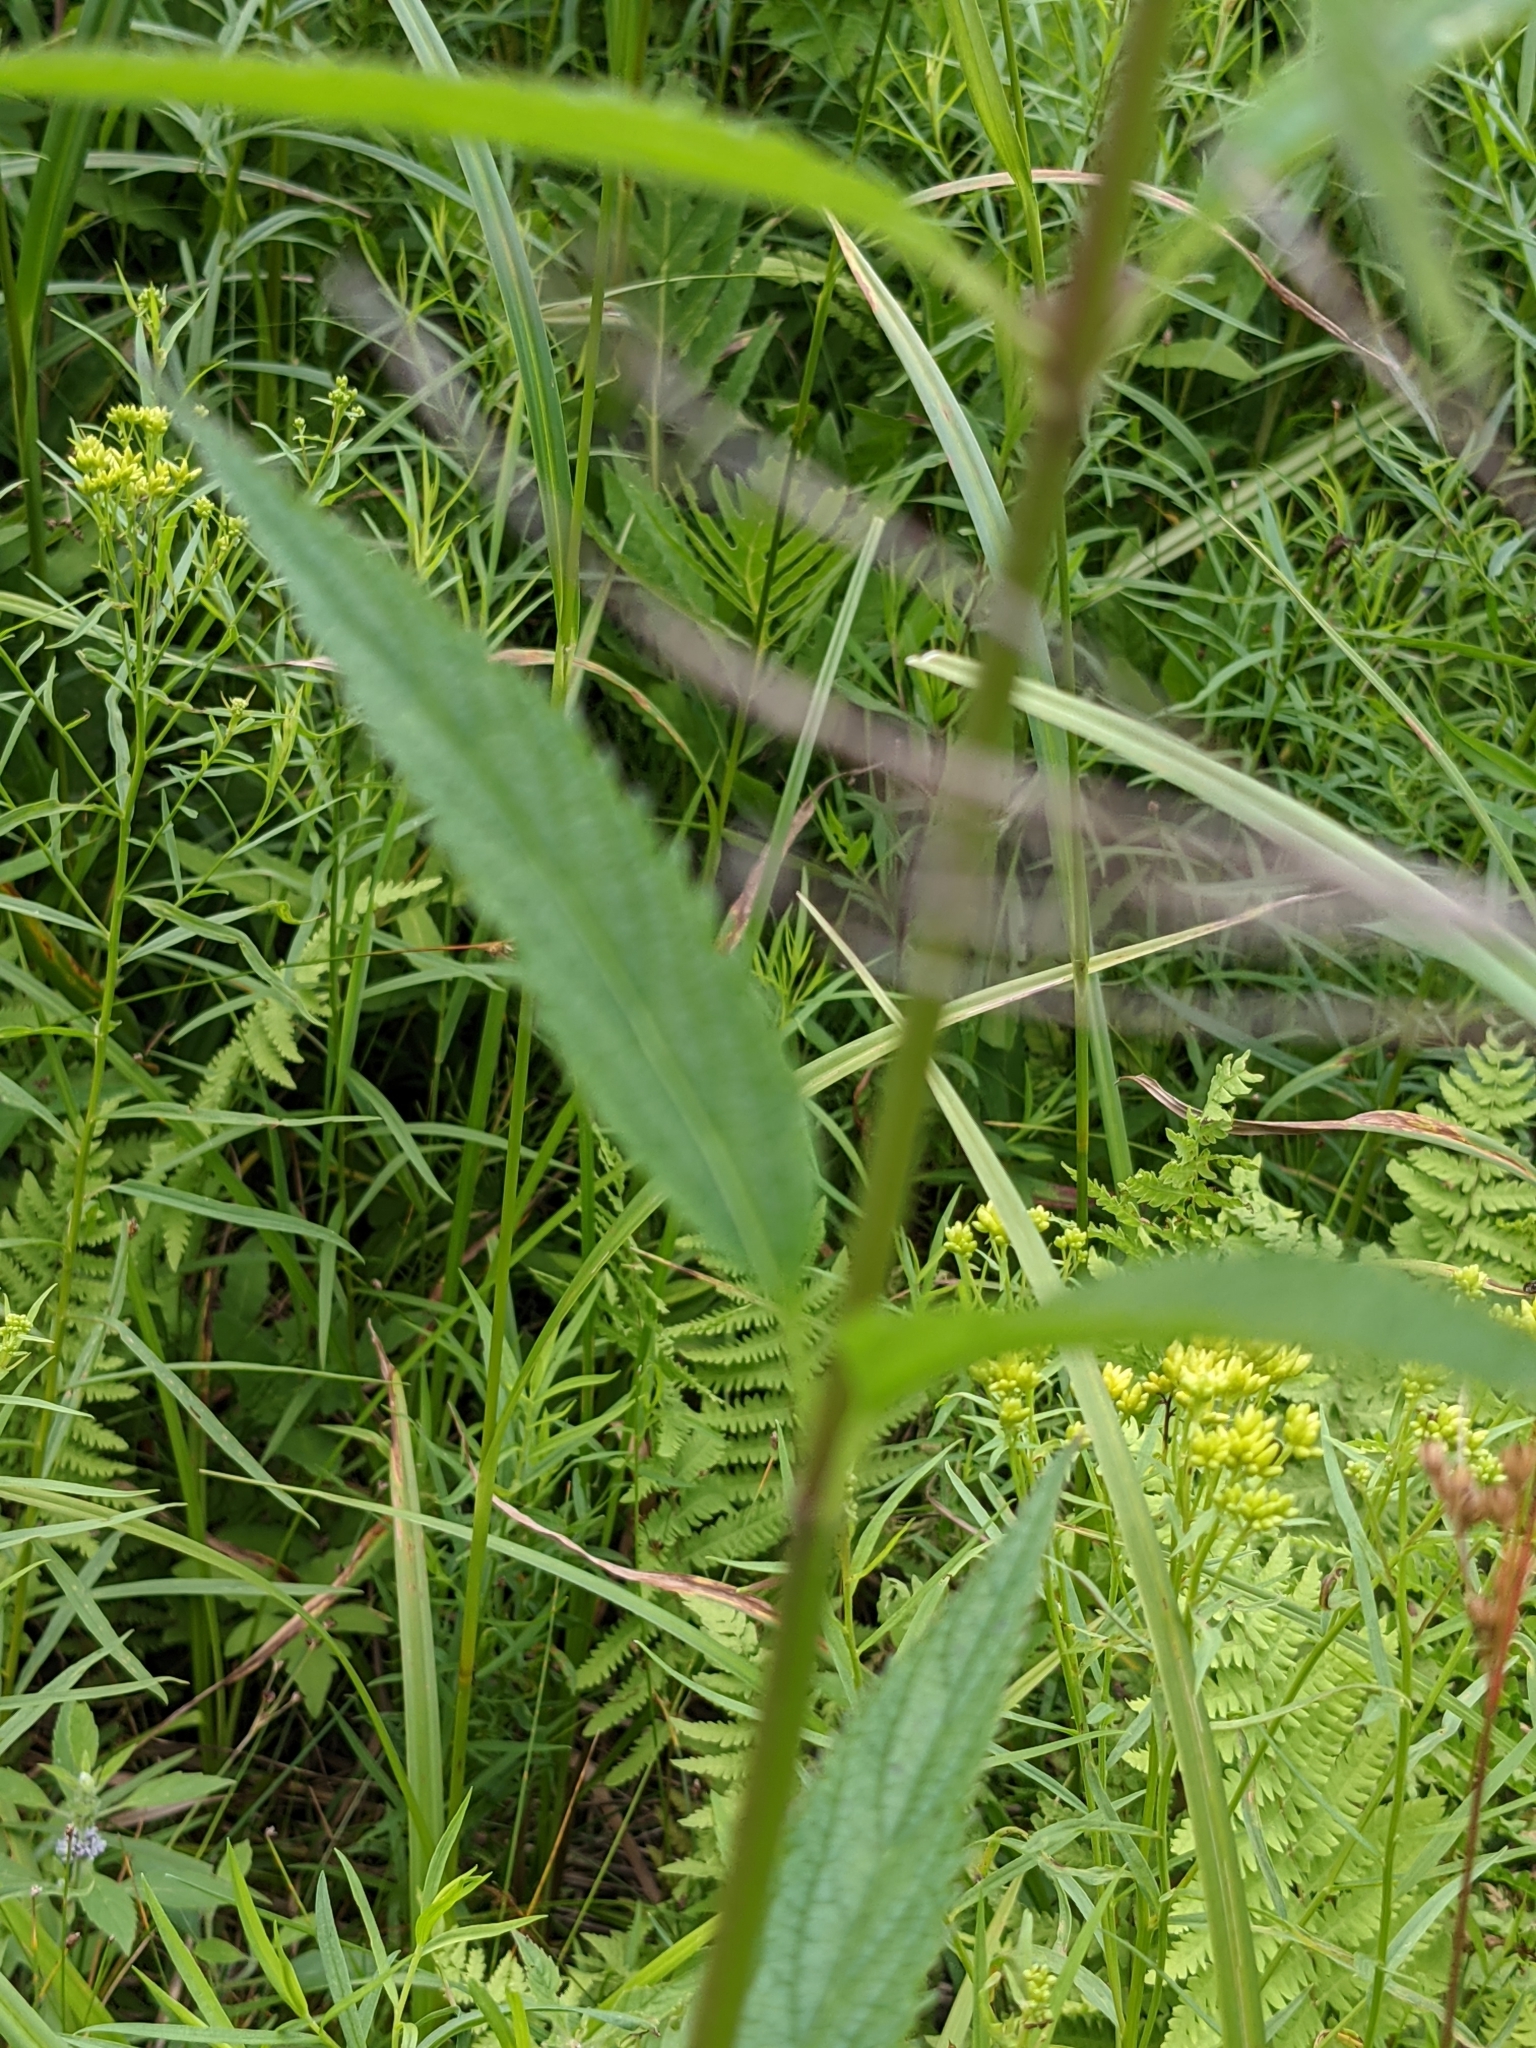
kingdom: Plantae
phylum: Tracheophyta
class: Magnoliopsida
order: Lamiales
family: Verbenaceae
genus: Verbena
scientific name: Verbena hastata
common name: American blue vervain
